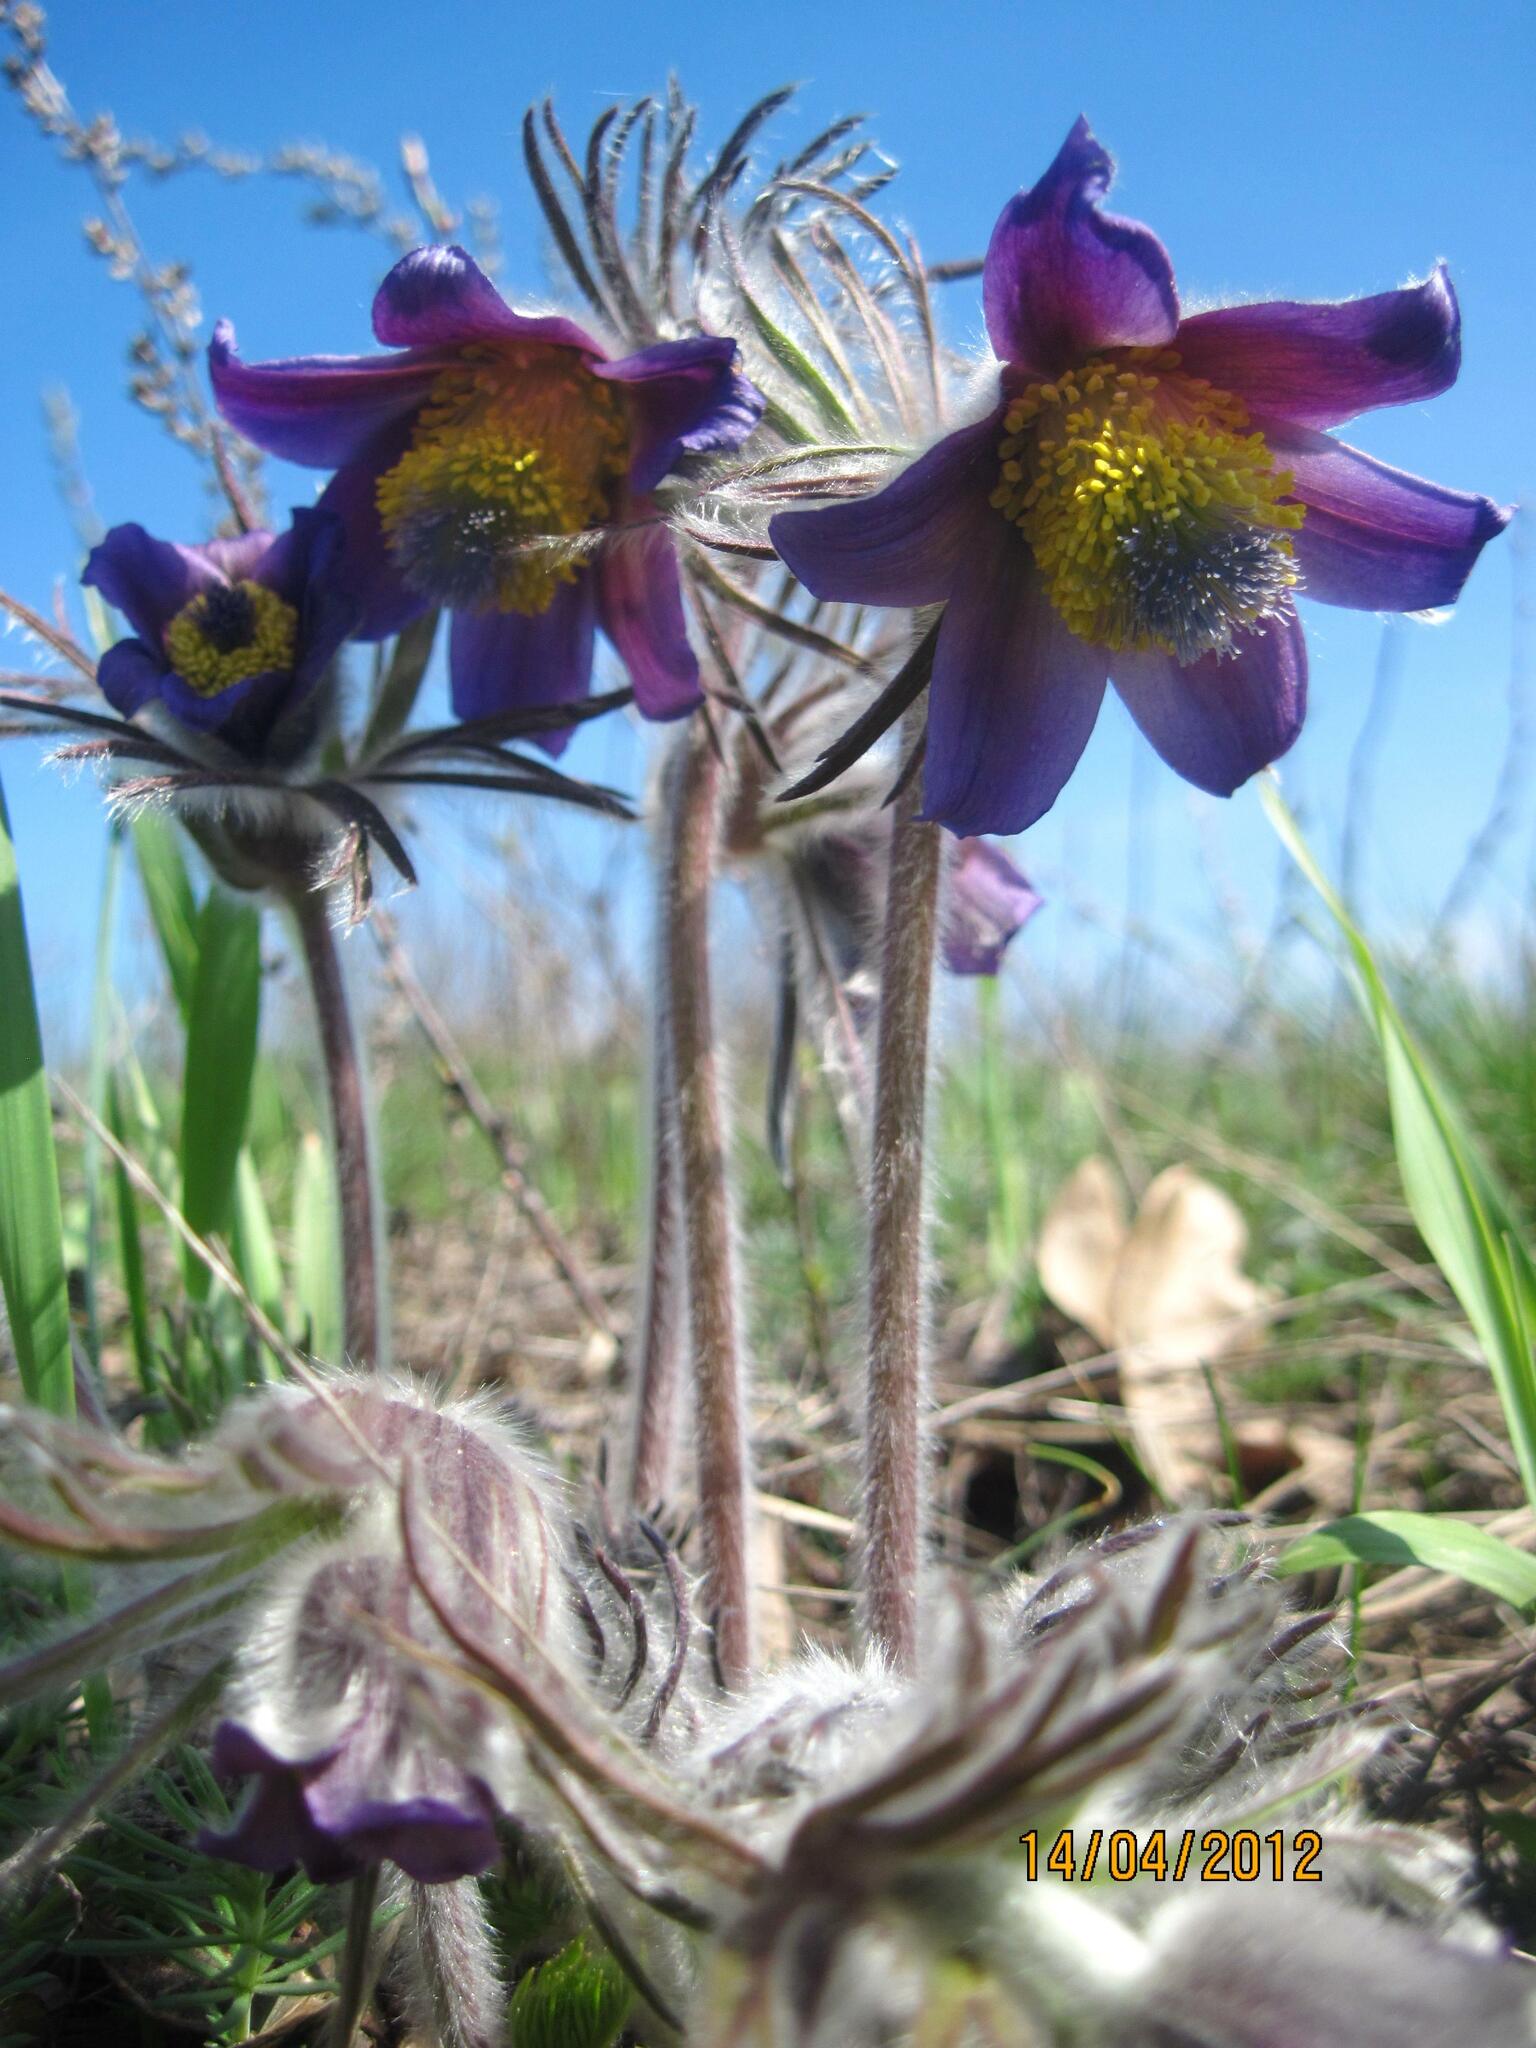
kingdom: Plantae
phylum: Tracheophyta
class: Magnoliopsida
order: Ranunculales
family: Ranunculaceae
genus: Pulsatilla
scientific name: Pulsatilla pratensis
